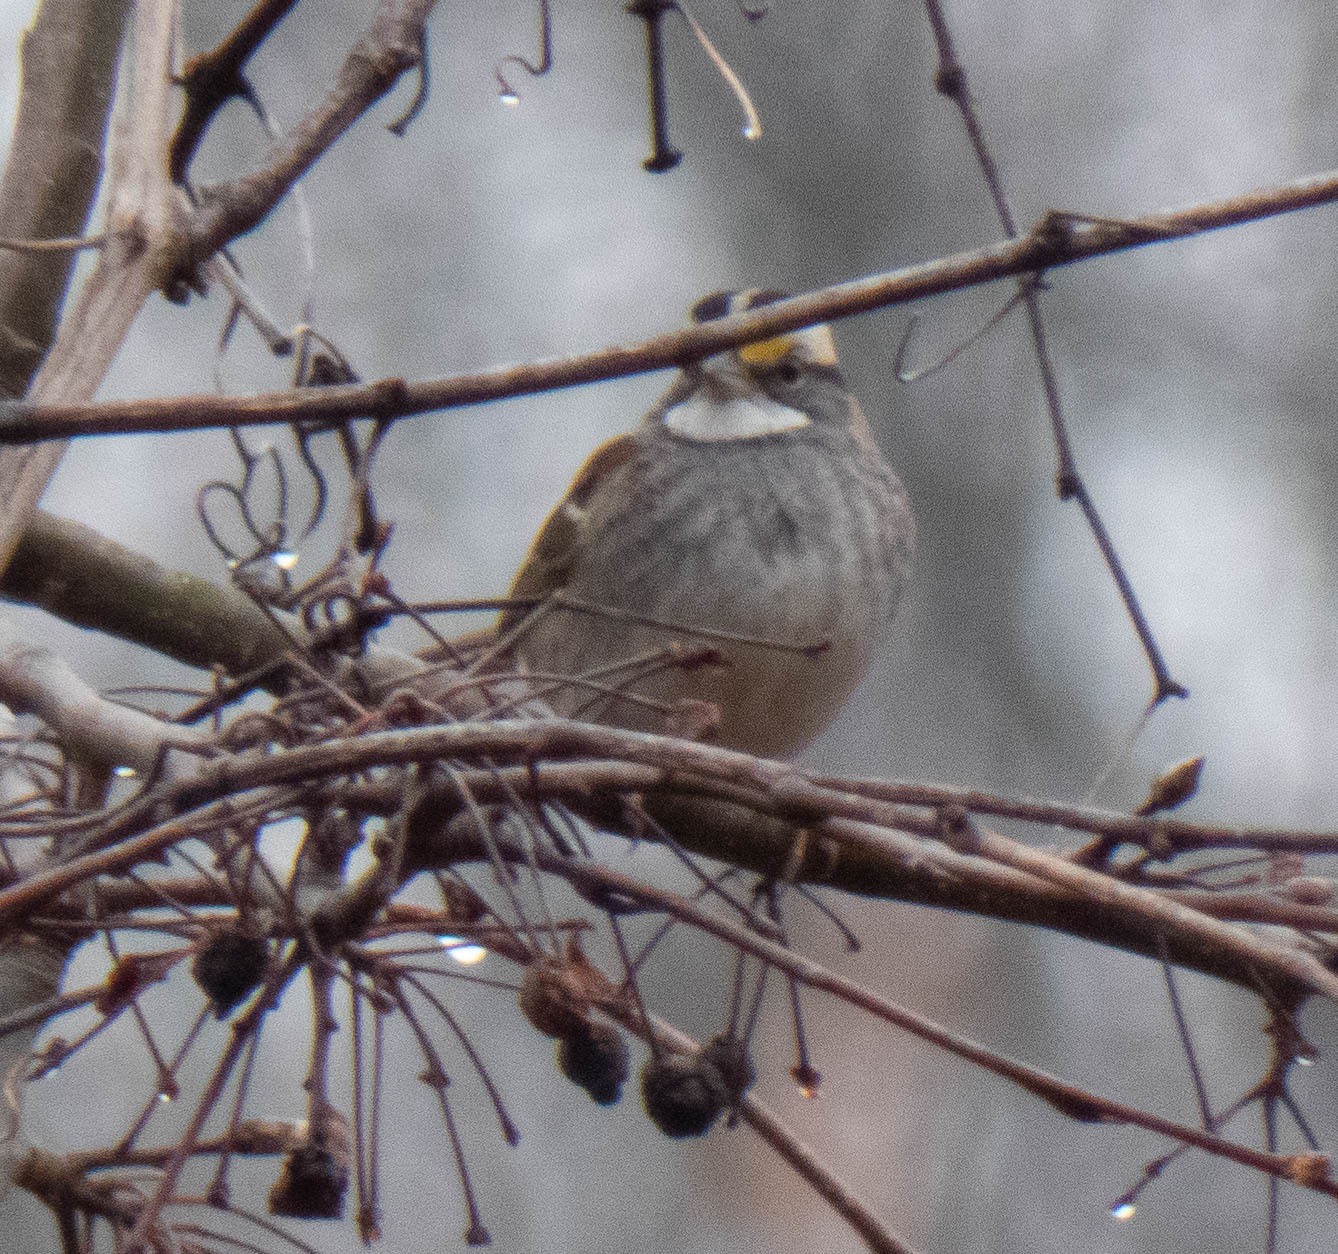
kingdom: Animalia
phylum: Chordata
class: Aves
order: Passeriformes
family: Passerellidae
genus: Zonotrichia
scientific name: Zonotrichia albicollis
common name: White-throated sparrow
